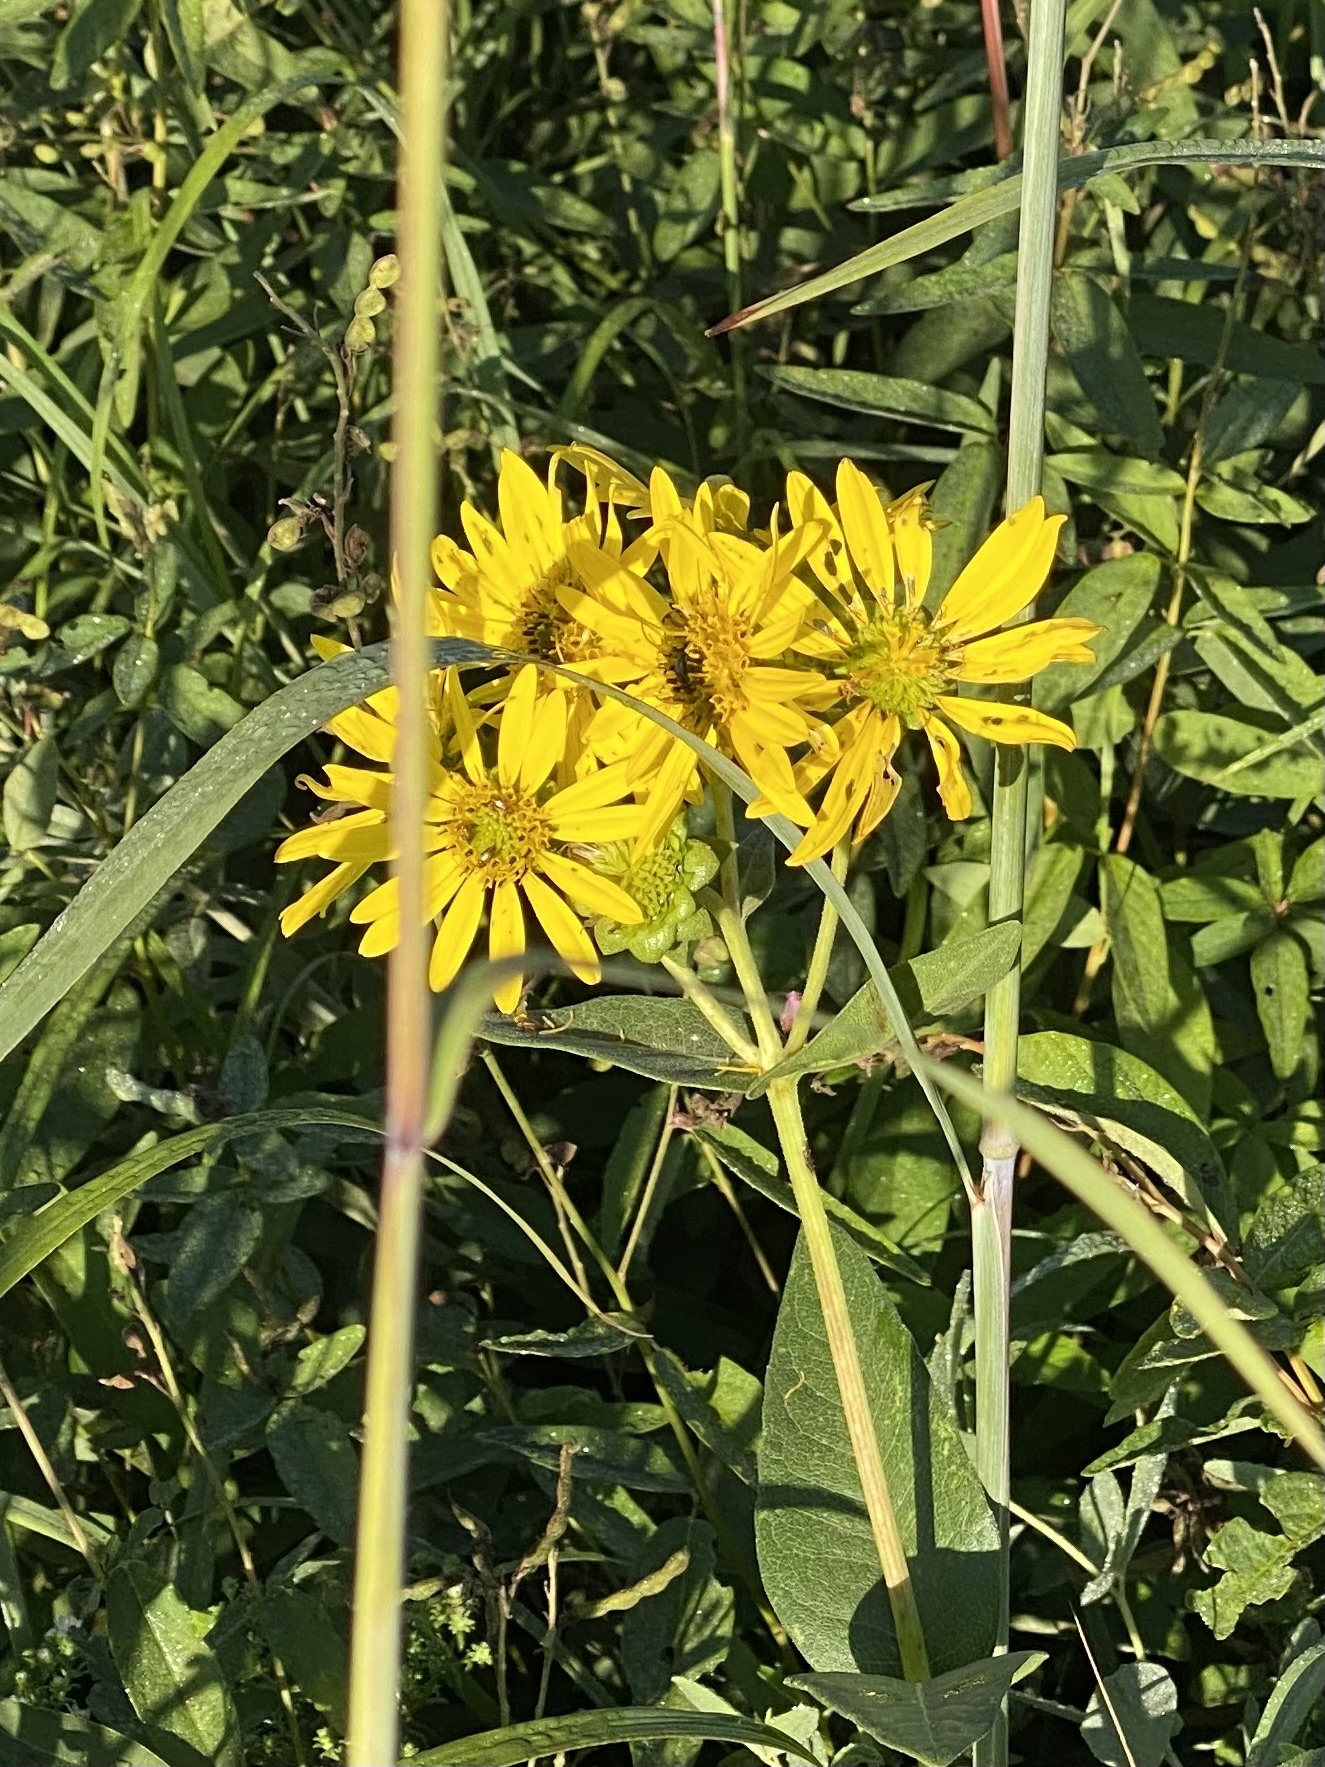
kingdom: Plantae
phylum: Tracheophyta
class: Magnoliopsida
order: Asterales
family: Asteraceae
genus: Silphium
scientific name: Silphium integrifolium
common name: Whole-leaf rosinweed
